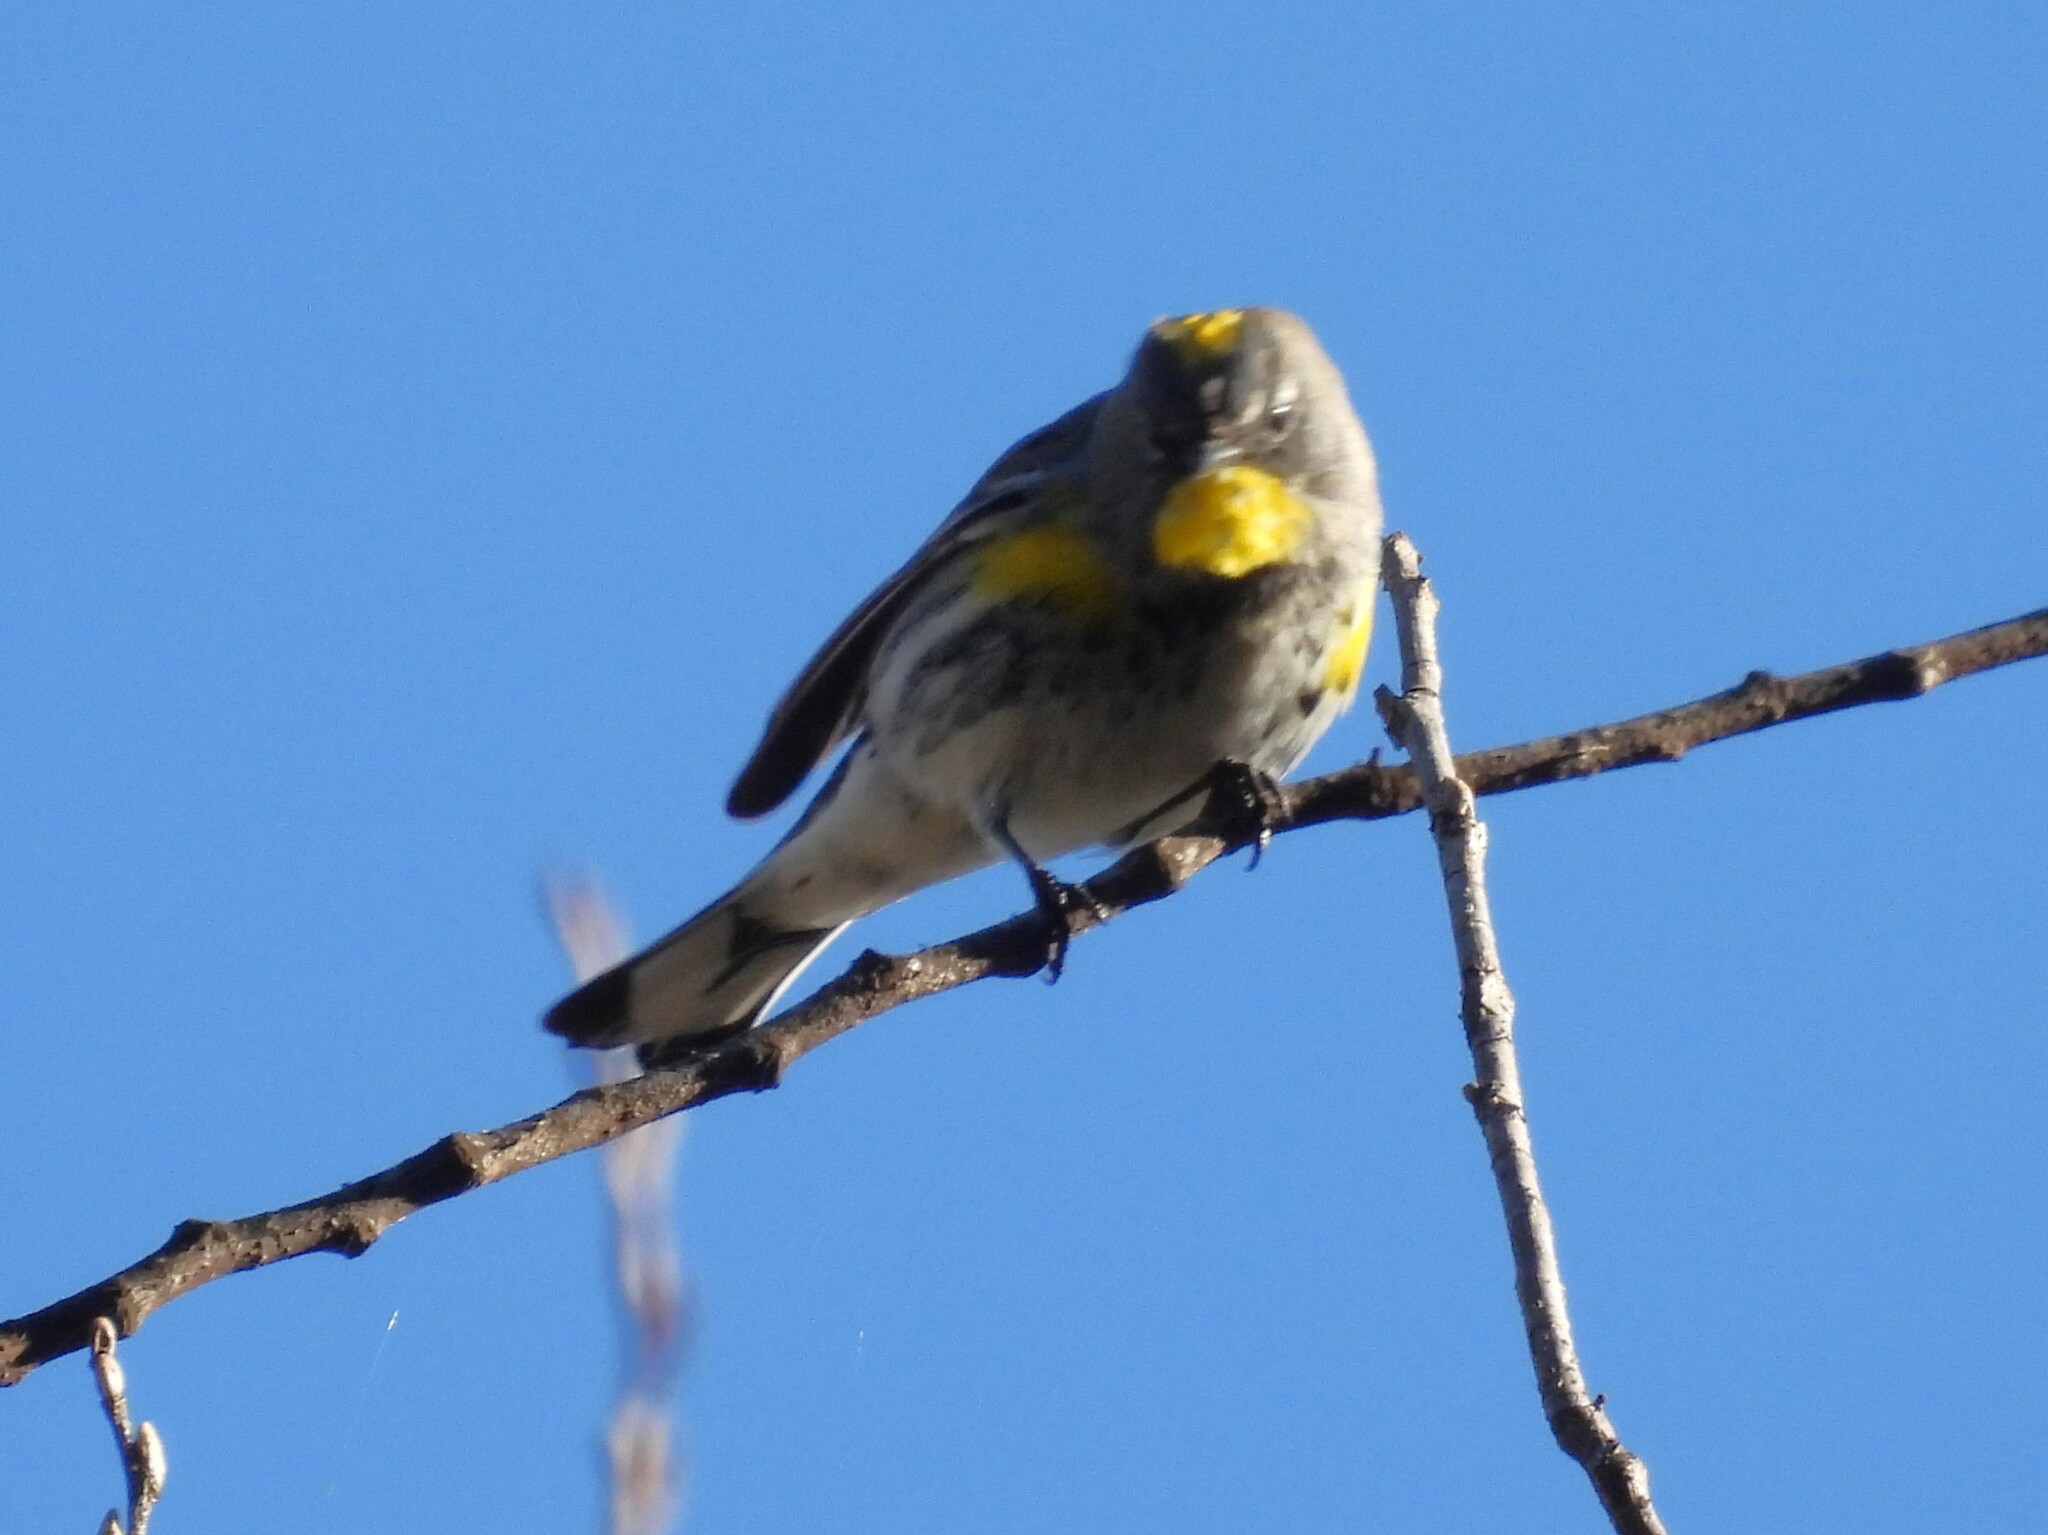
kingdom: Animalia
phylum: Chordata
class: Aves
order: Passeriformes
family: Parulidae
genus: Setophaga
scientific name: Setophaga coronata
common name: Myrtle warbler
